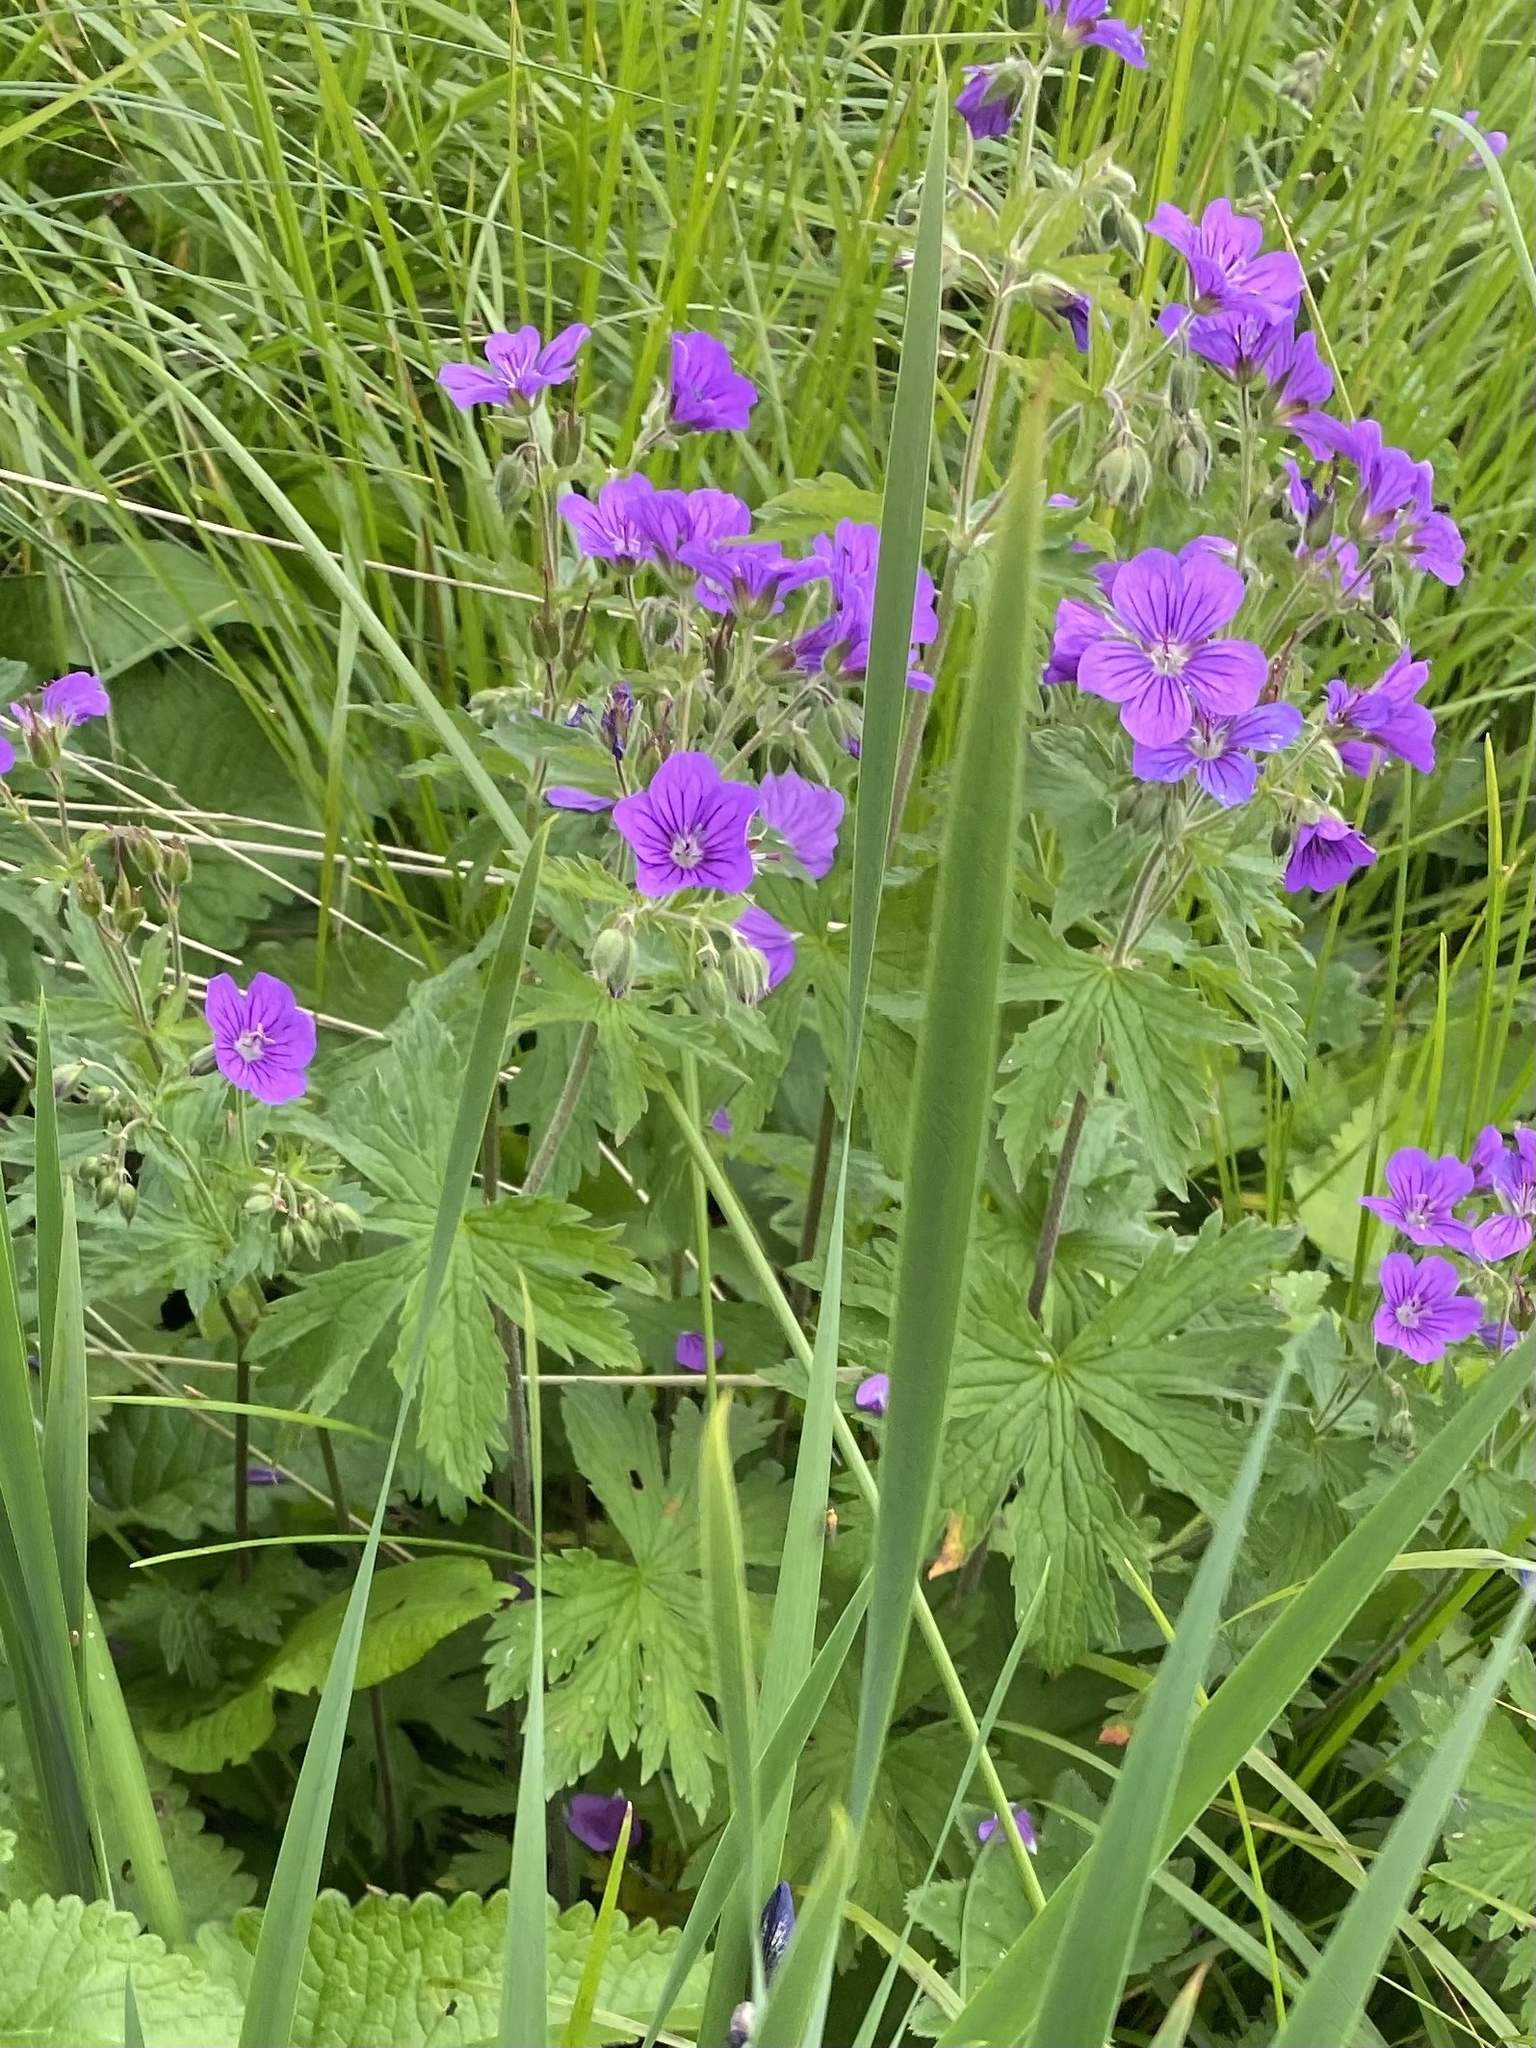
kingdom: Plantae
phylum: Tracheophyta
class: Magnoliopsida
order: Geraniales
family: Geraniaceae
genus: Geranium
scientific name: Geranium sylvaticum
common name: Wood crane's-bill
